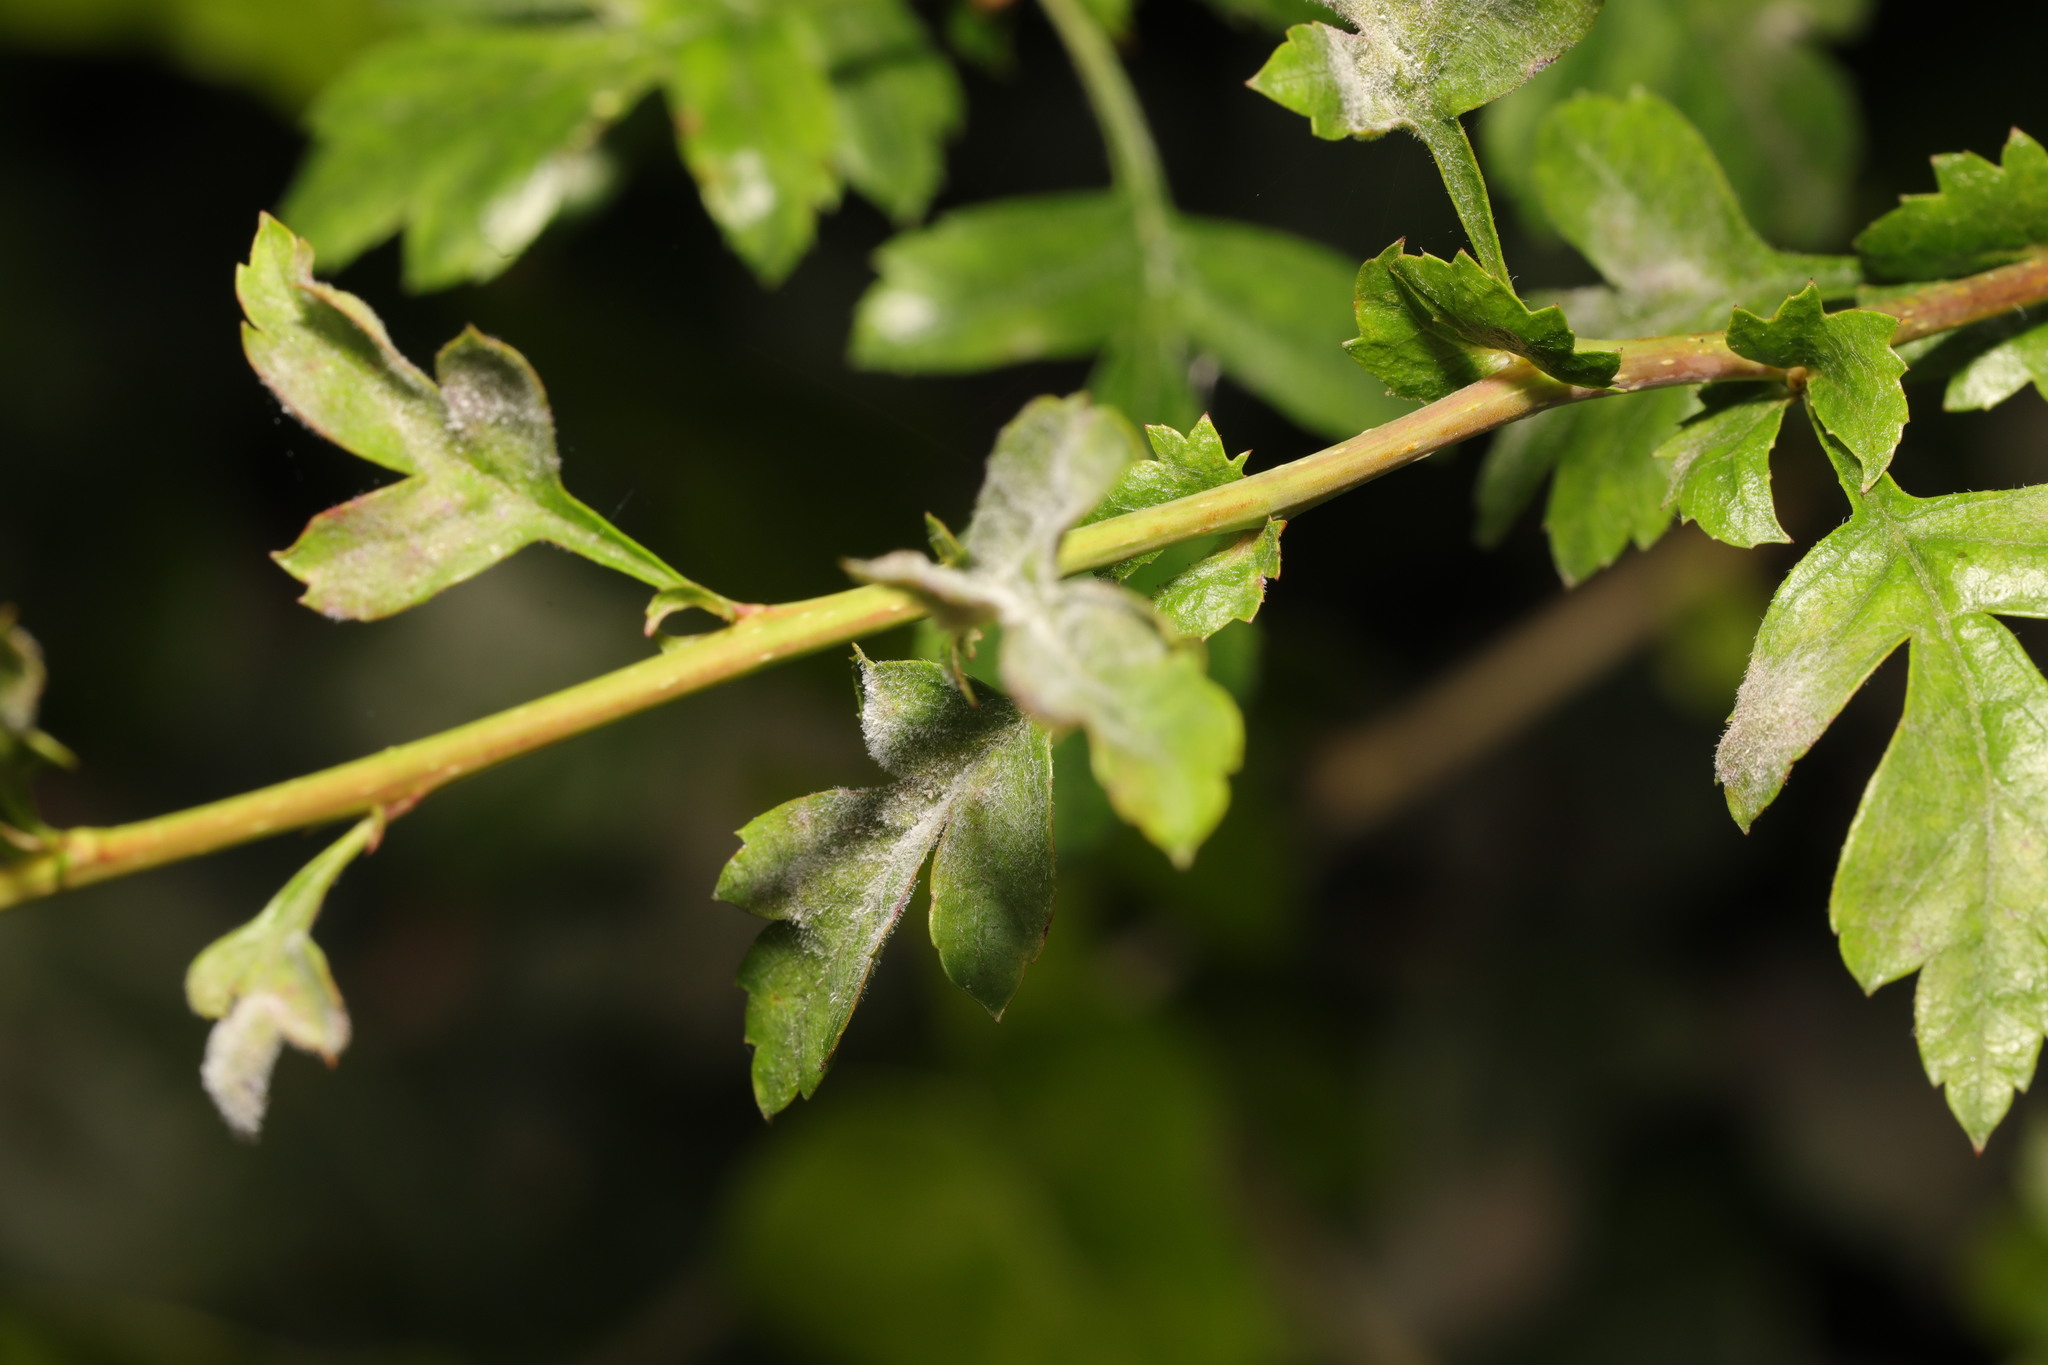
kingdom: Fungi
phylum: Ascomycota
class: Leotiomycetes
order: Helotiales
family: Erysiphaceae
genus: Podosphaera
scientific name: Podosphaera clandestina
